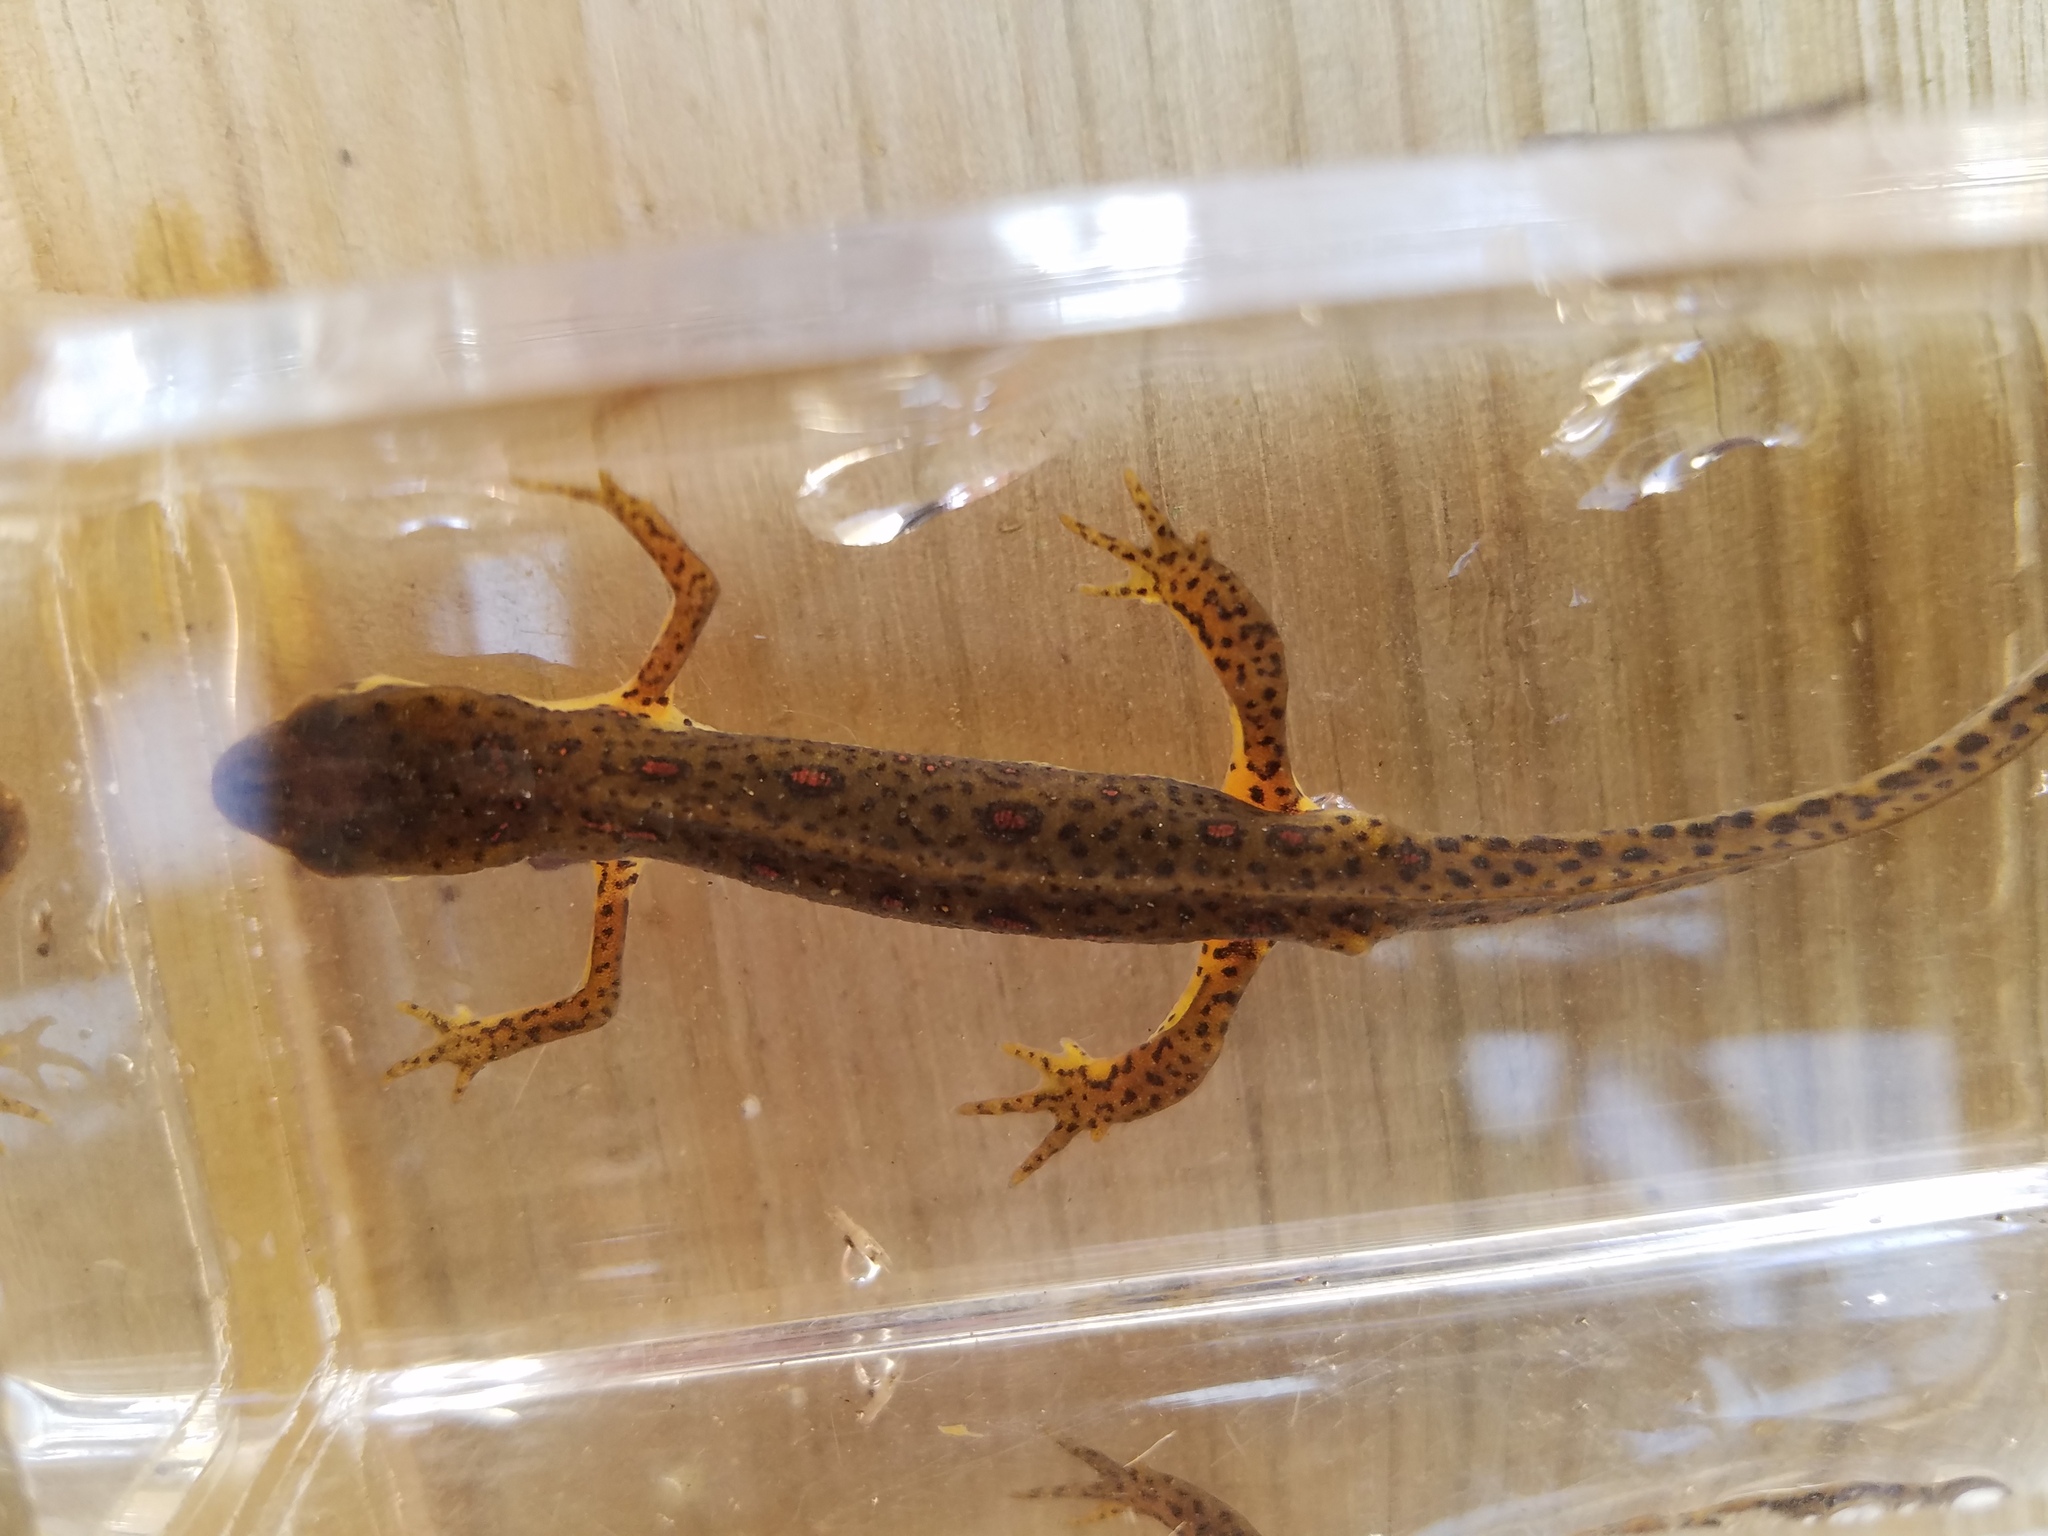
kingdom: Animalia
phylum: Chordata
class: Amphibia
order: Caudata
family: Salamandridae
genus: Notophthalmus
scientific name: Notophthalmus viridescens
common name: Eastern newt
